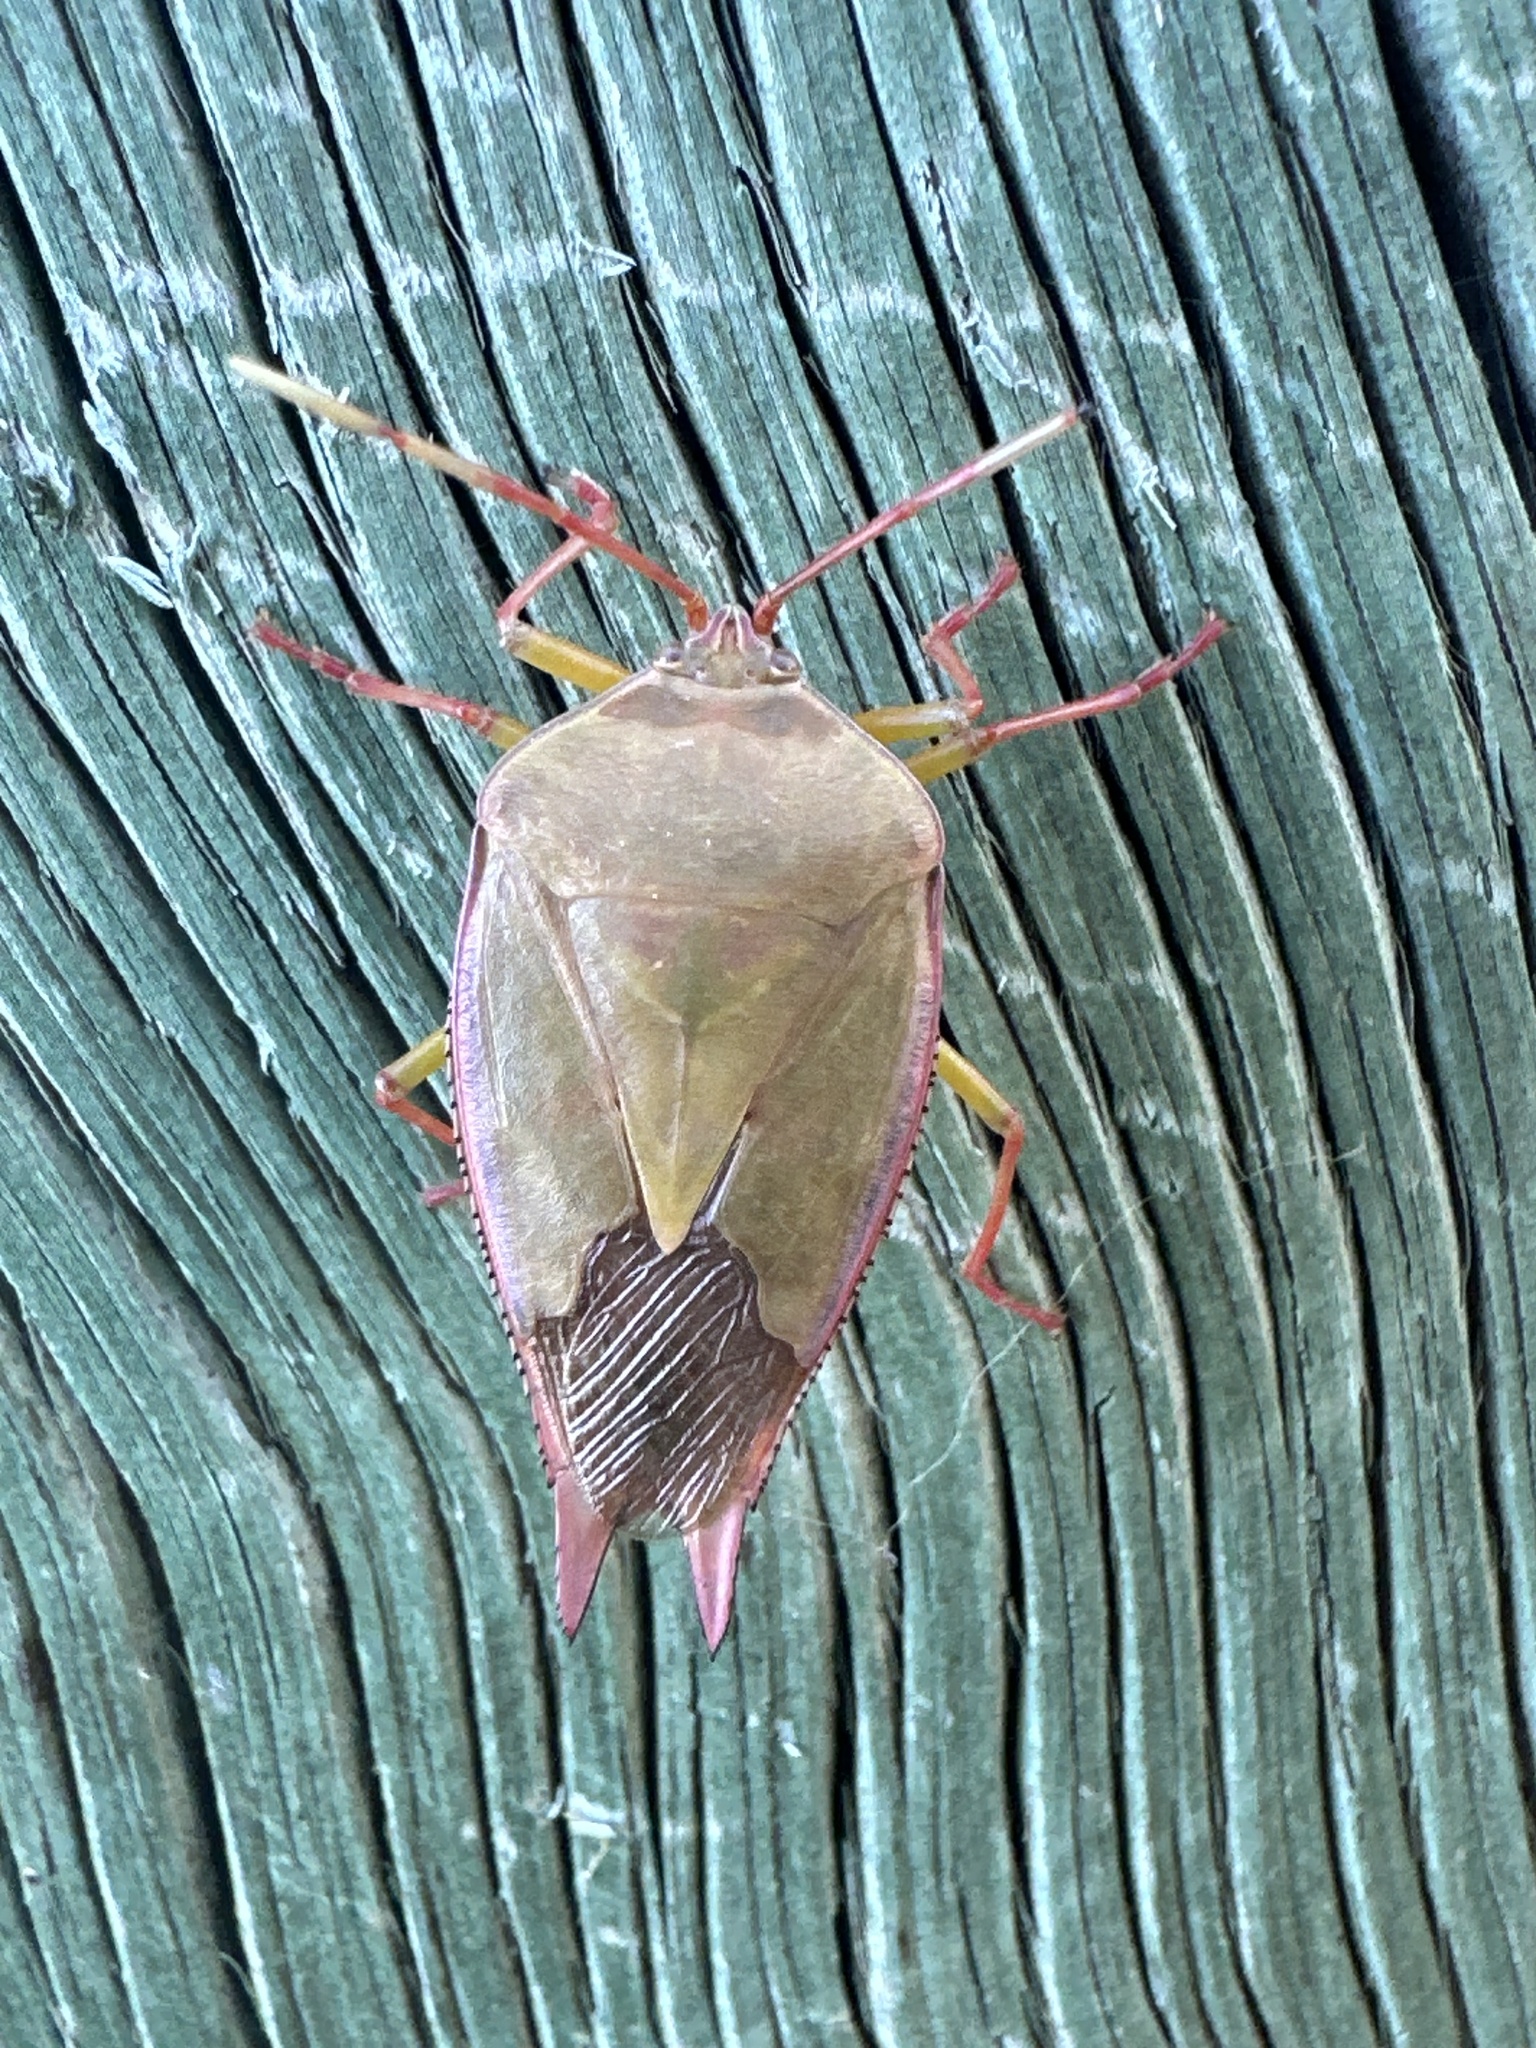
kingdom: Animalia
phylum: Arthropoda
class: Insecta
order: Hemiptera
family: Tessaratomidae
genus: Lyramorpha
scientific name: Lyramorpha rosea
